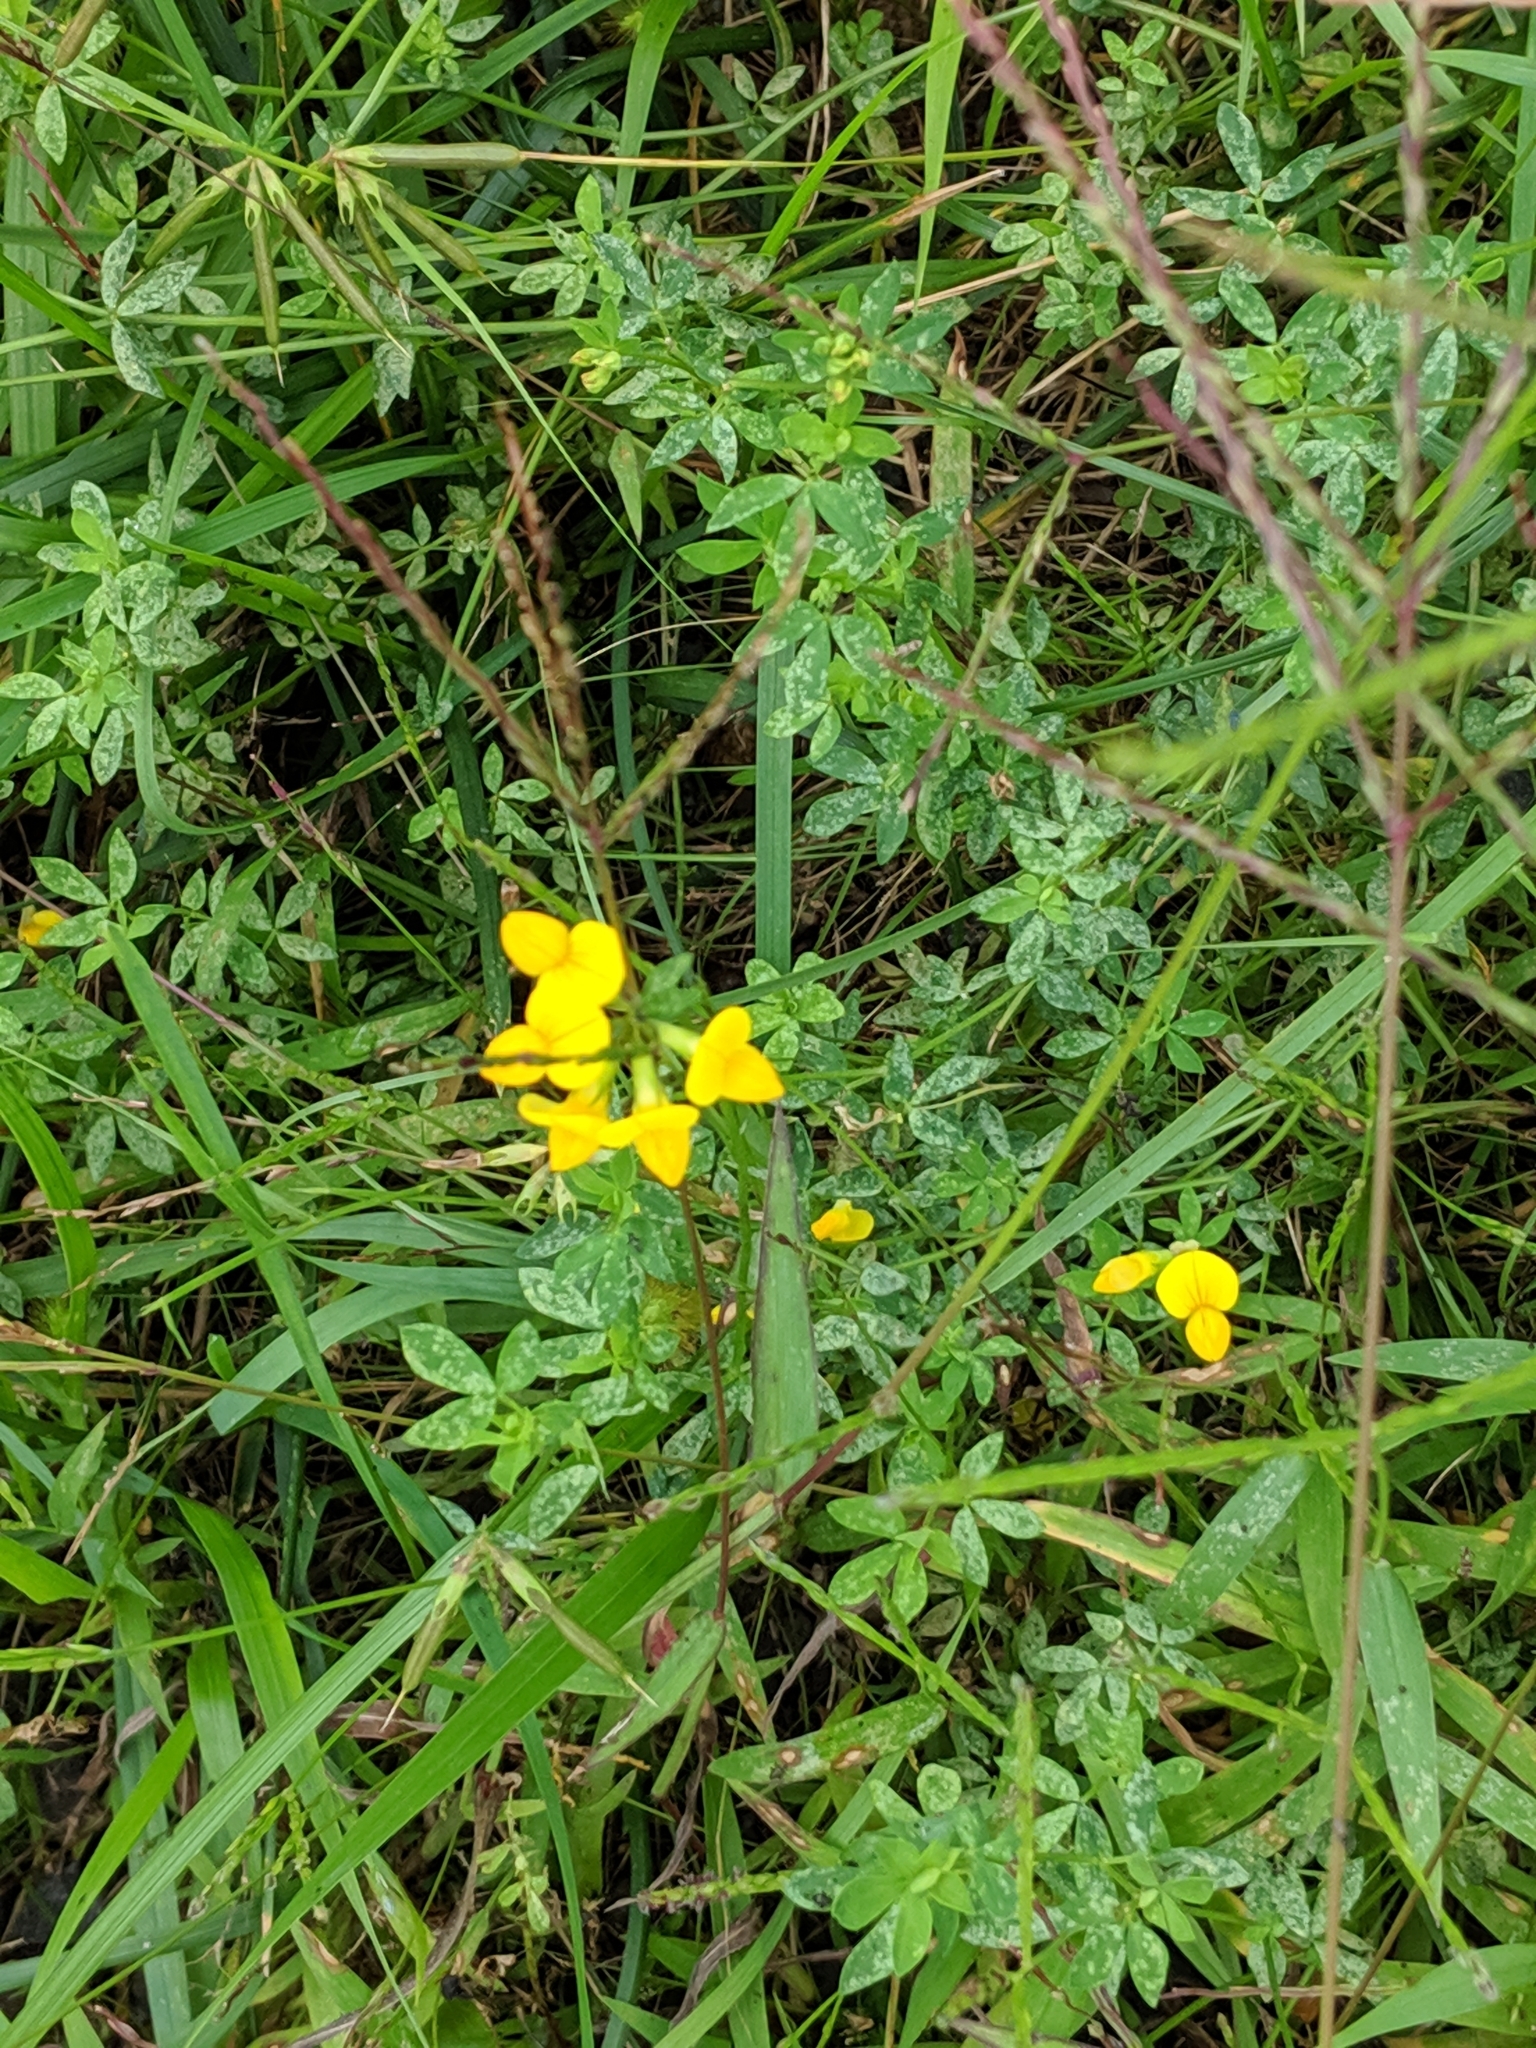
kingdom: Plantae
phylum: Tracheophyta
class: Magnoliopsida
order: Fabales
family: Fabaceae
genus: Lotus
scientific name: Lotus corniculatus
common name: Common bird's-foot-trefoil
